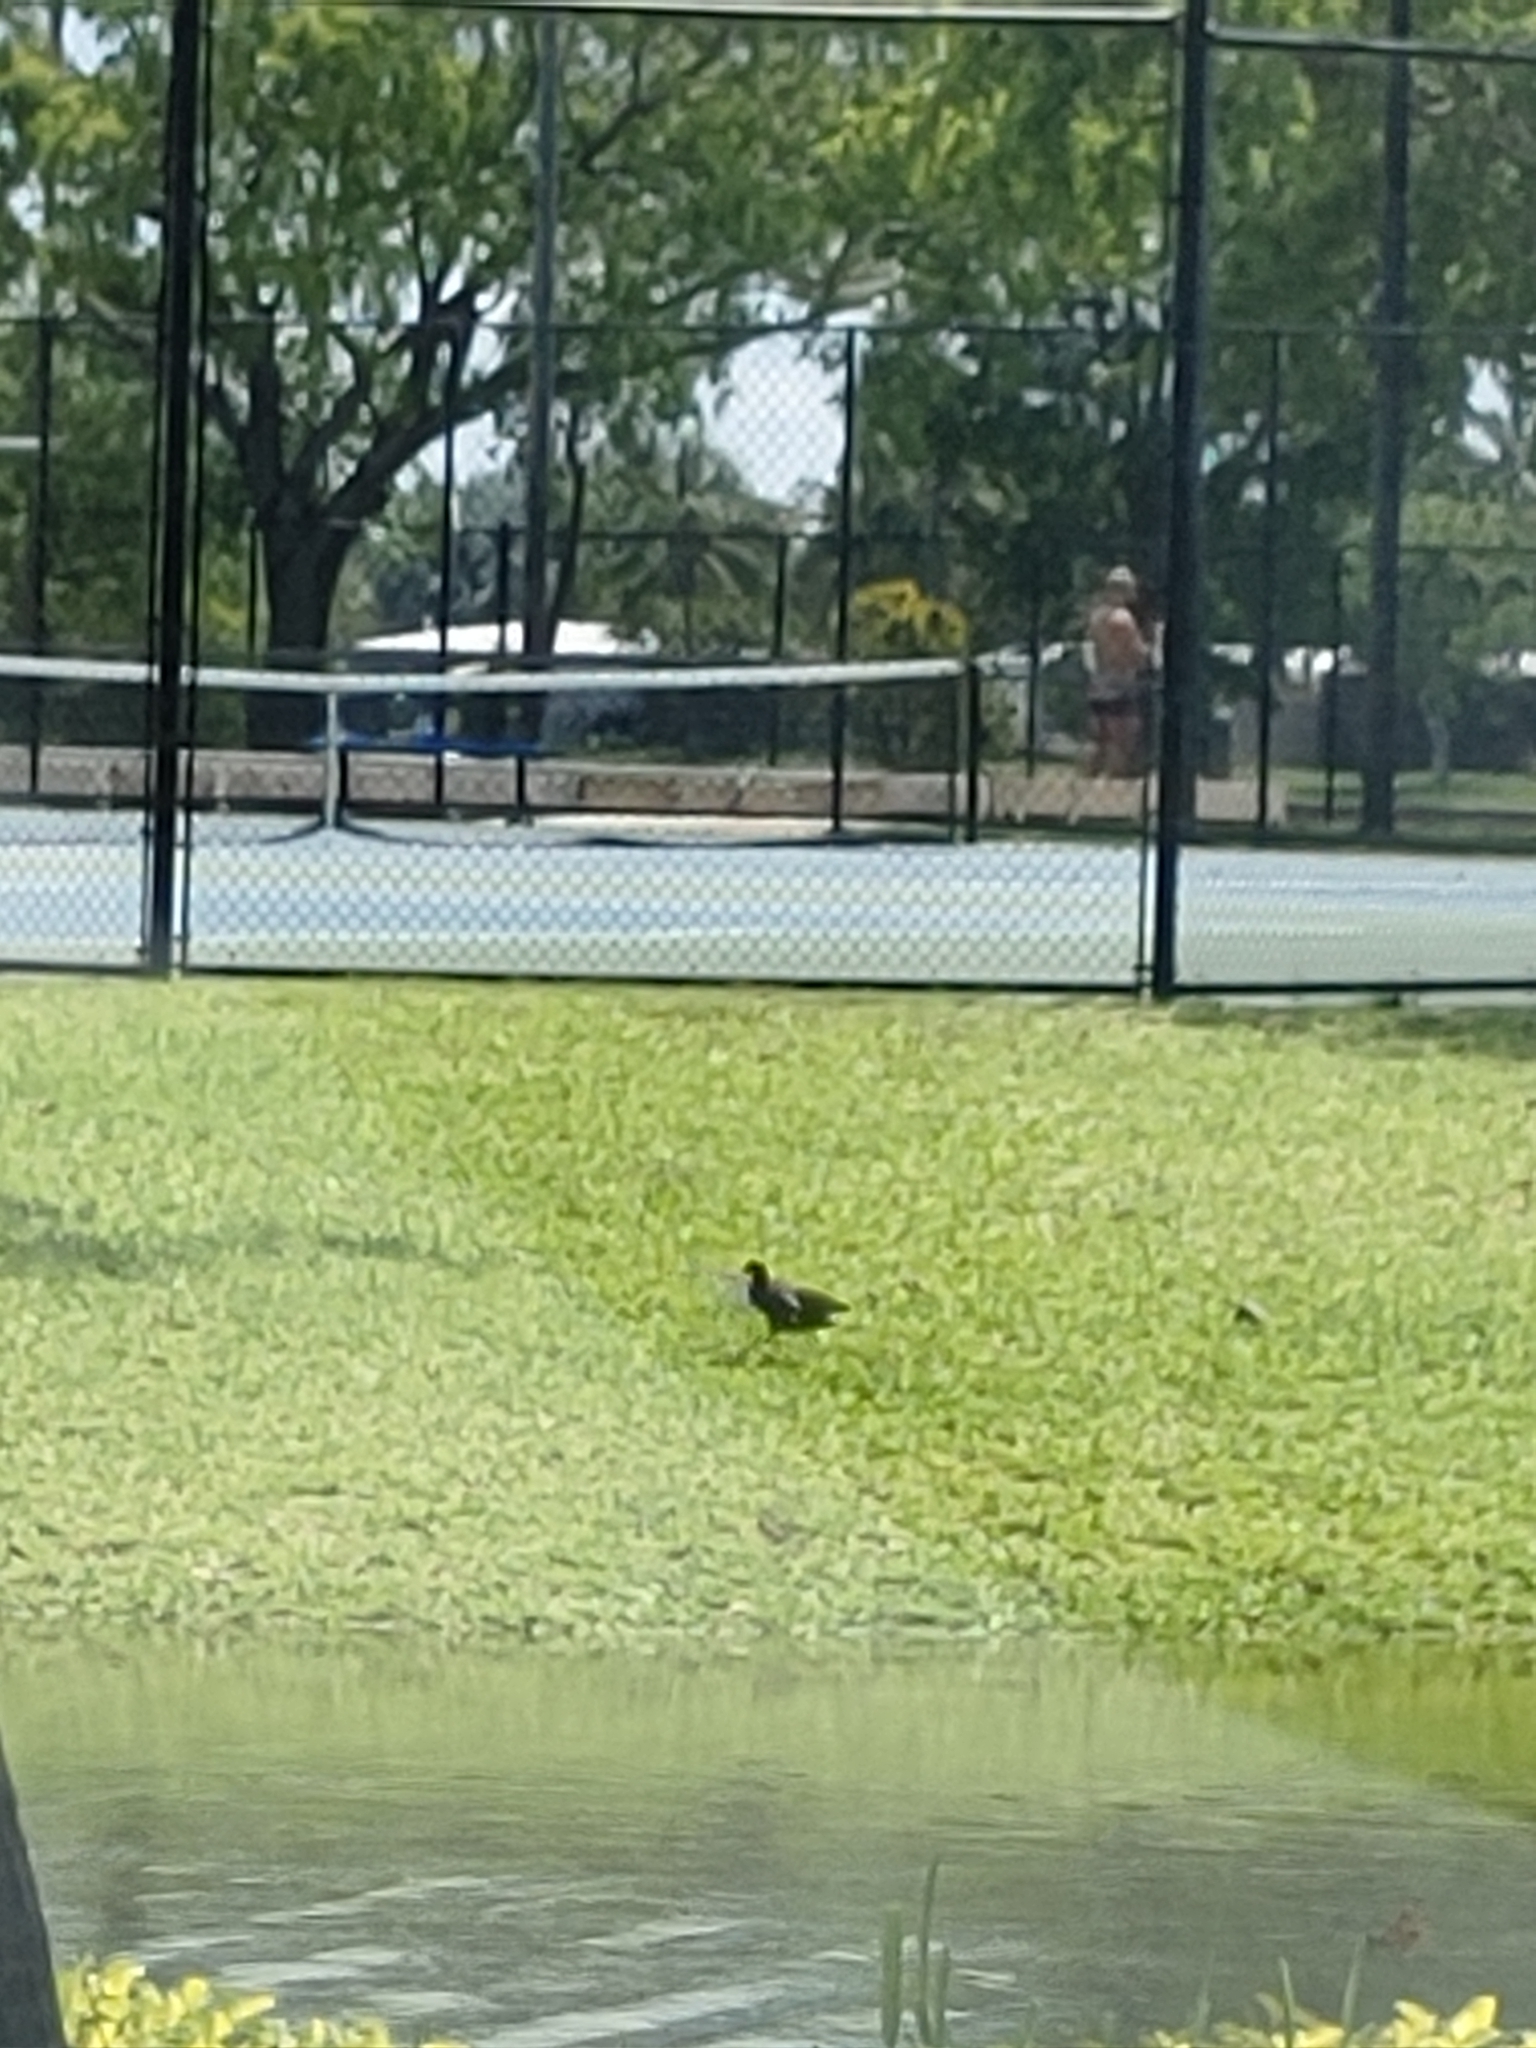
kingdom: Animalia
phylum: Chordata
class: Aves
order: Gruiformes
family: Rallidae
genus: Gallinula
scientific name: Gallinula chloropus
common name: Common moorhen
